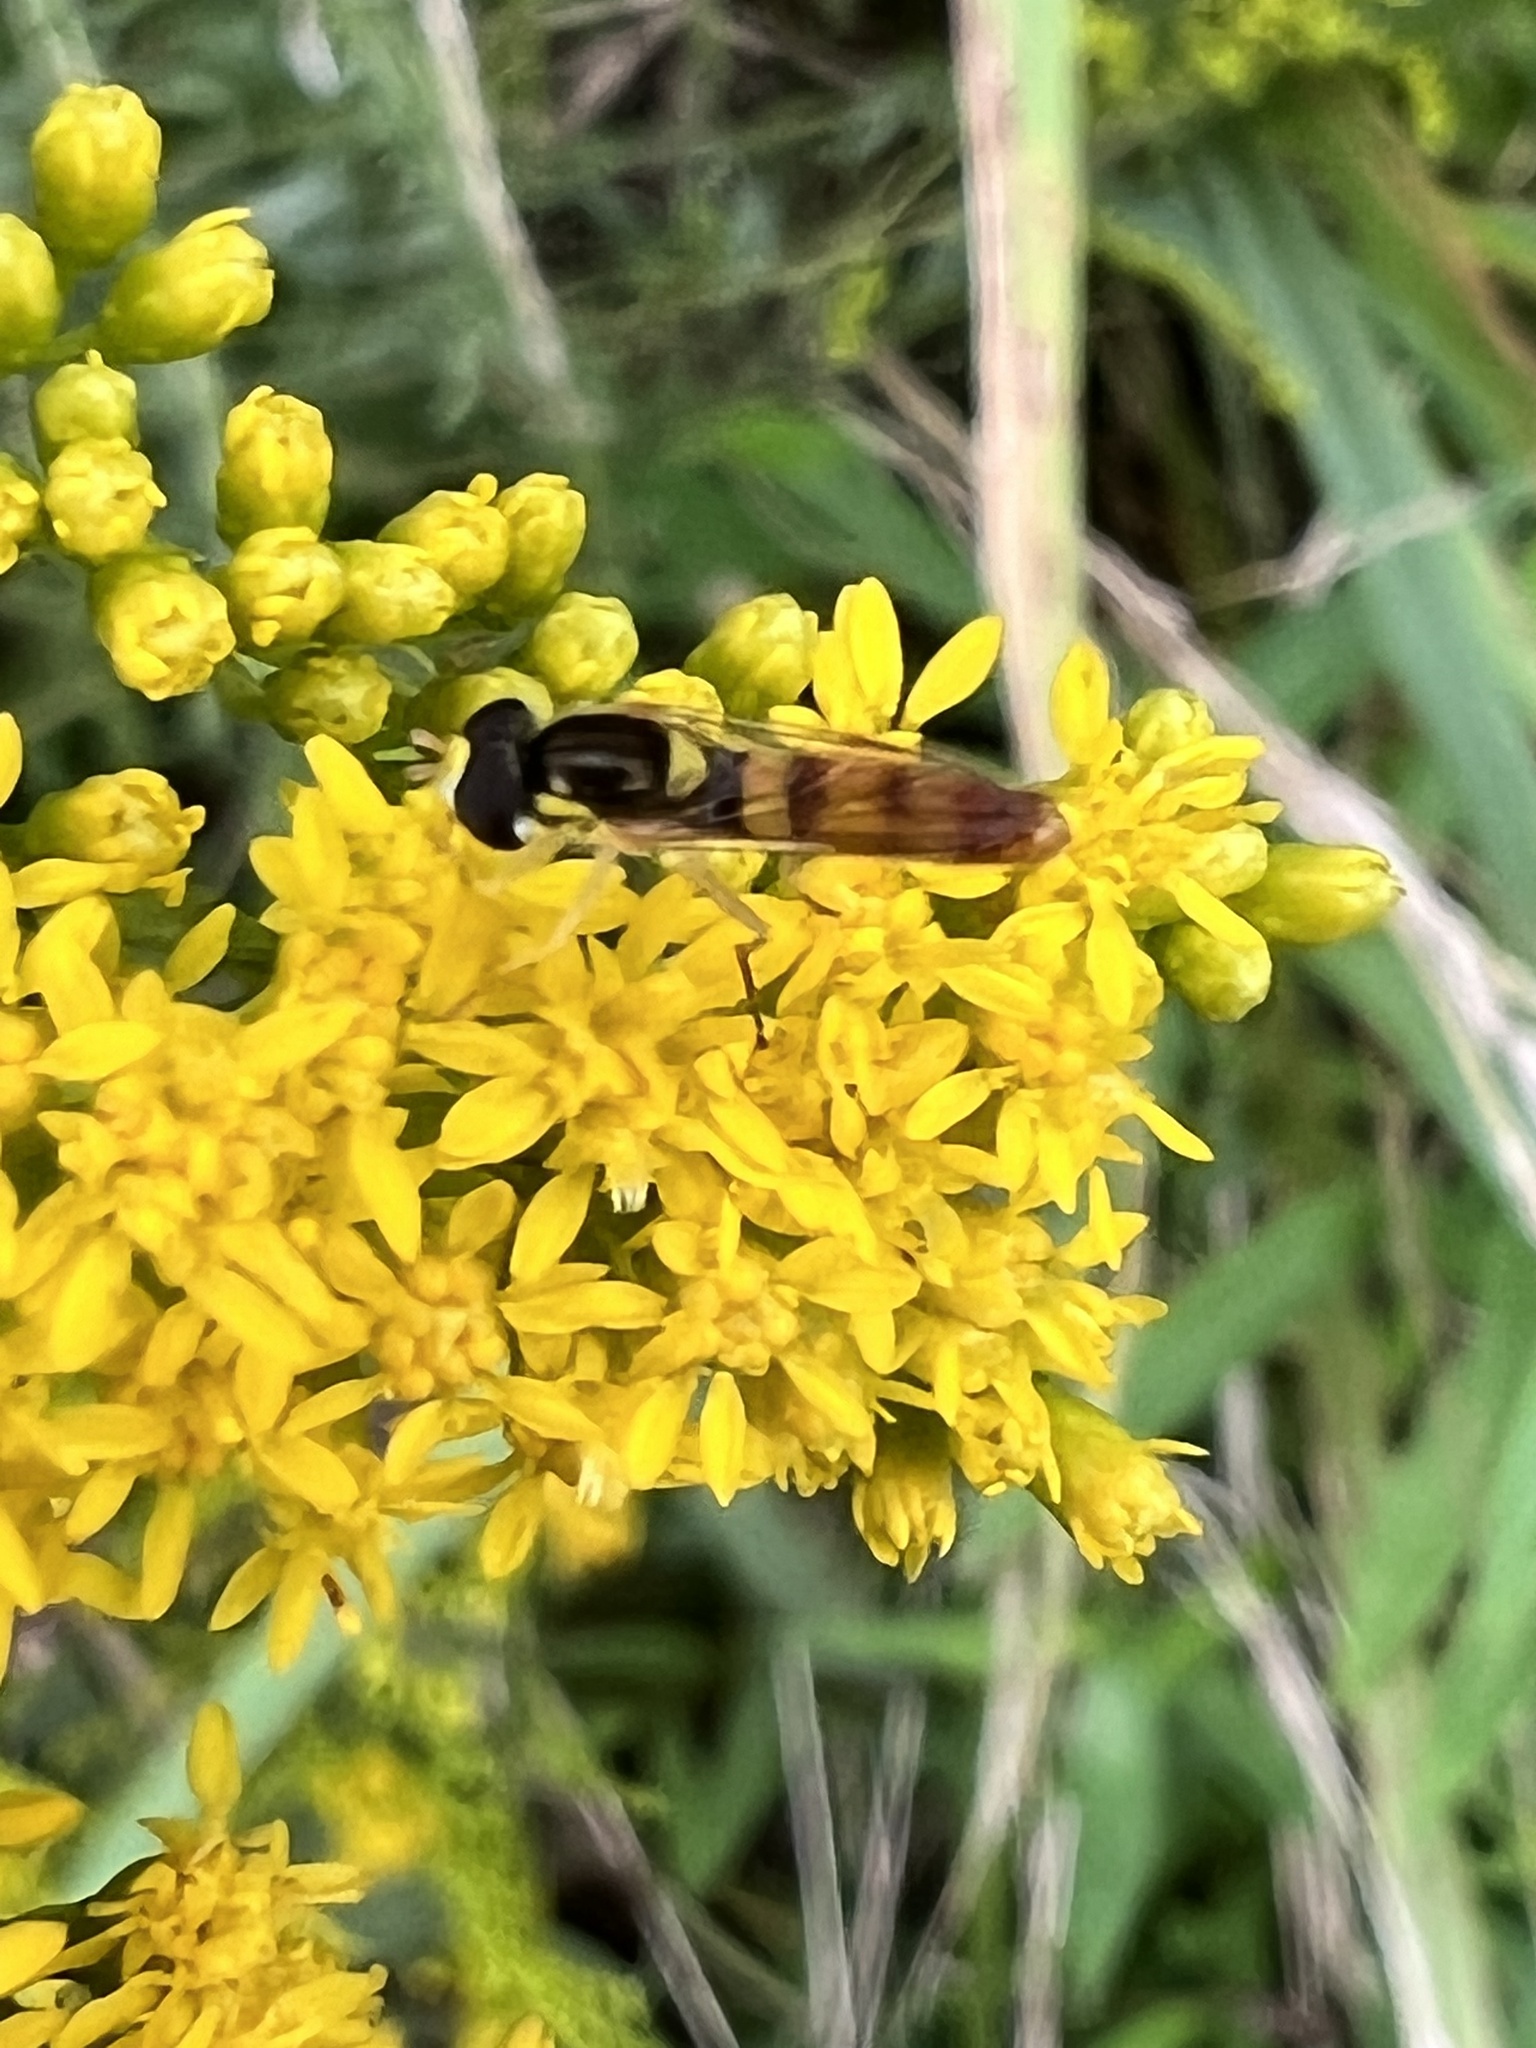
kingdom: Animalia
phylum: Arthropoda
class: Insecta
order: Diptera
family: Syrphidae
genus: Sphaerophoria
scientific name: Sphaerophoria contigua
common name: Tufted globetail
